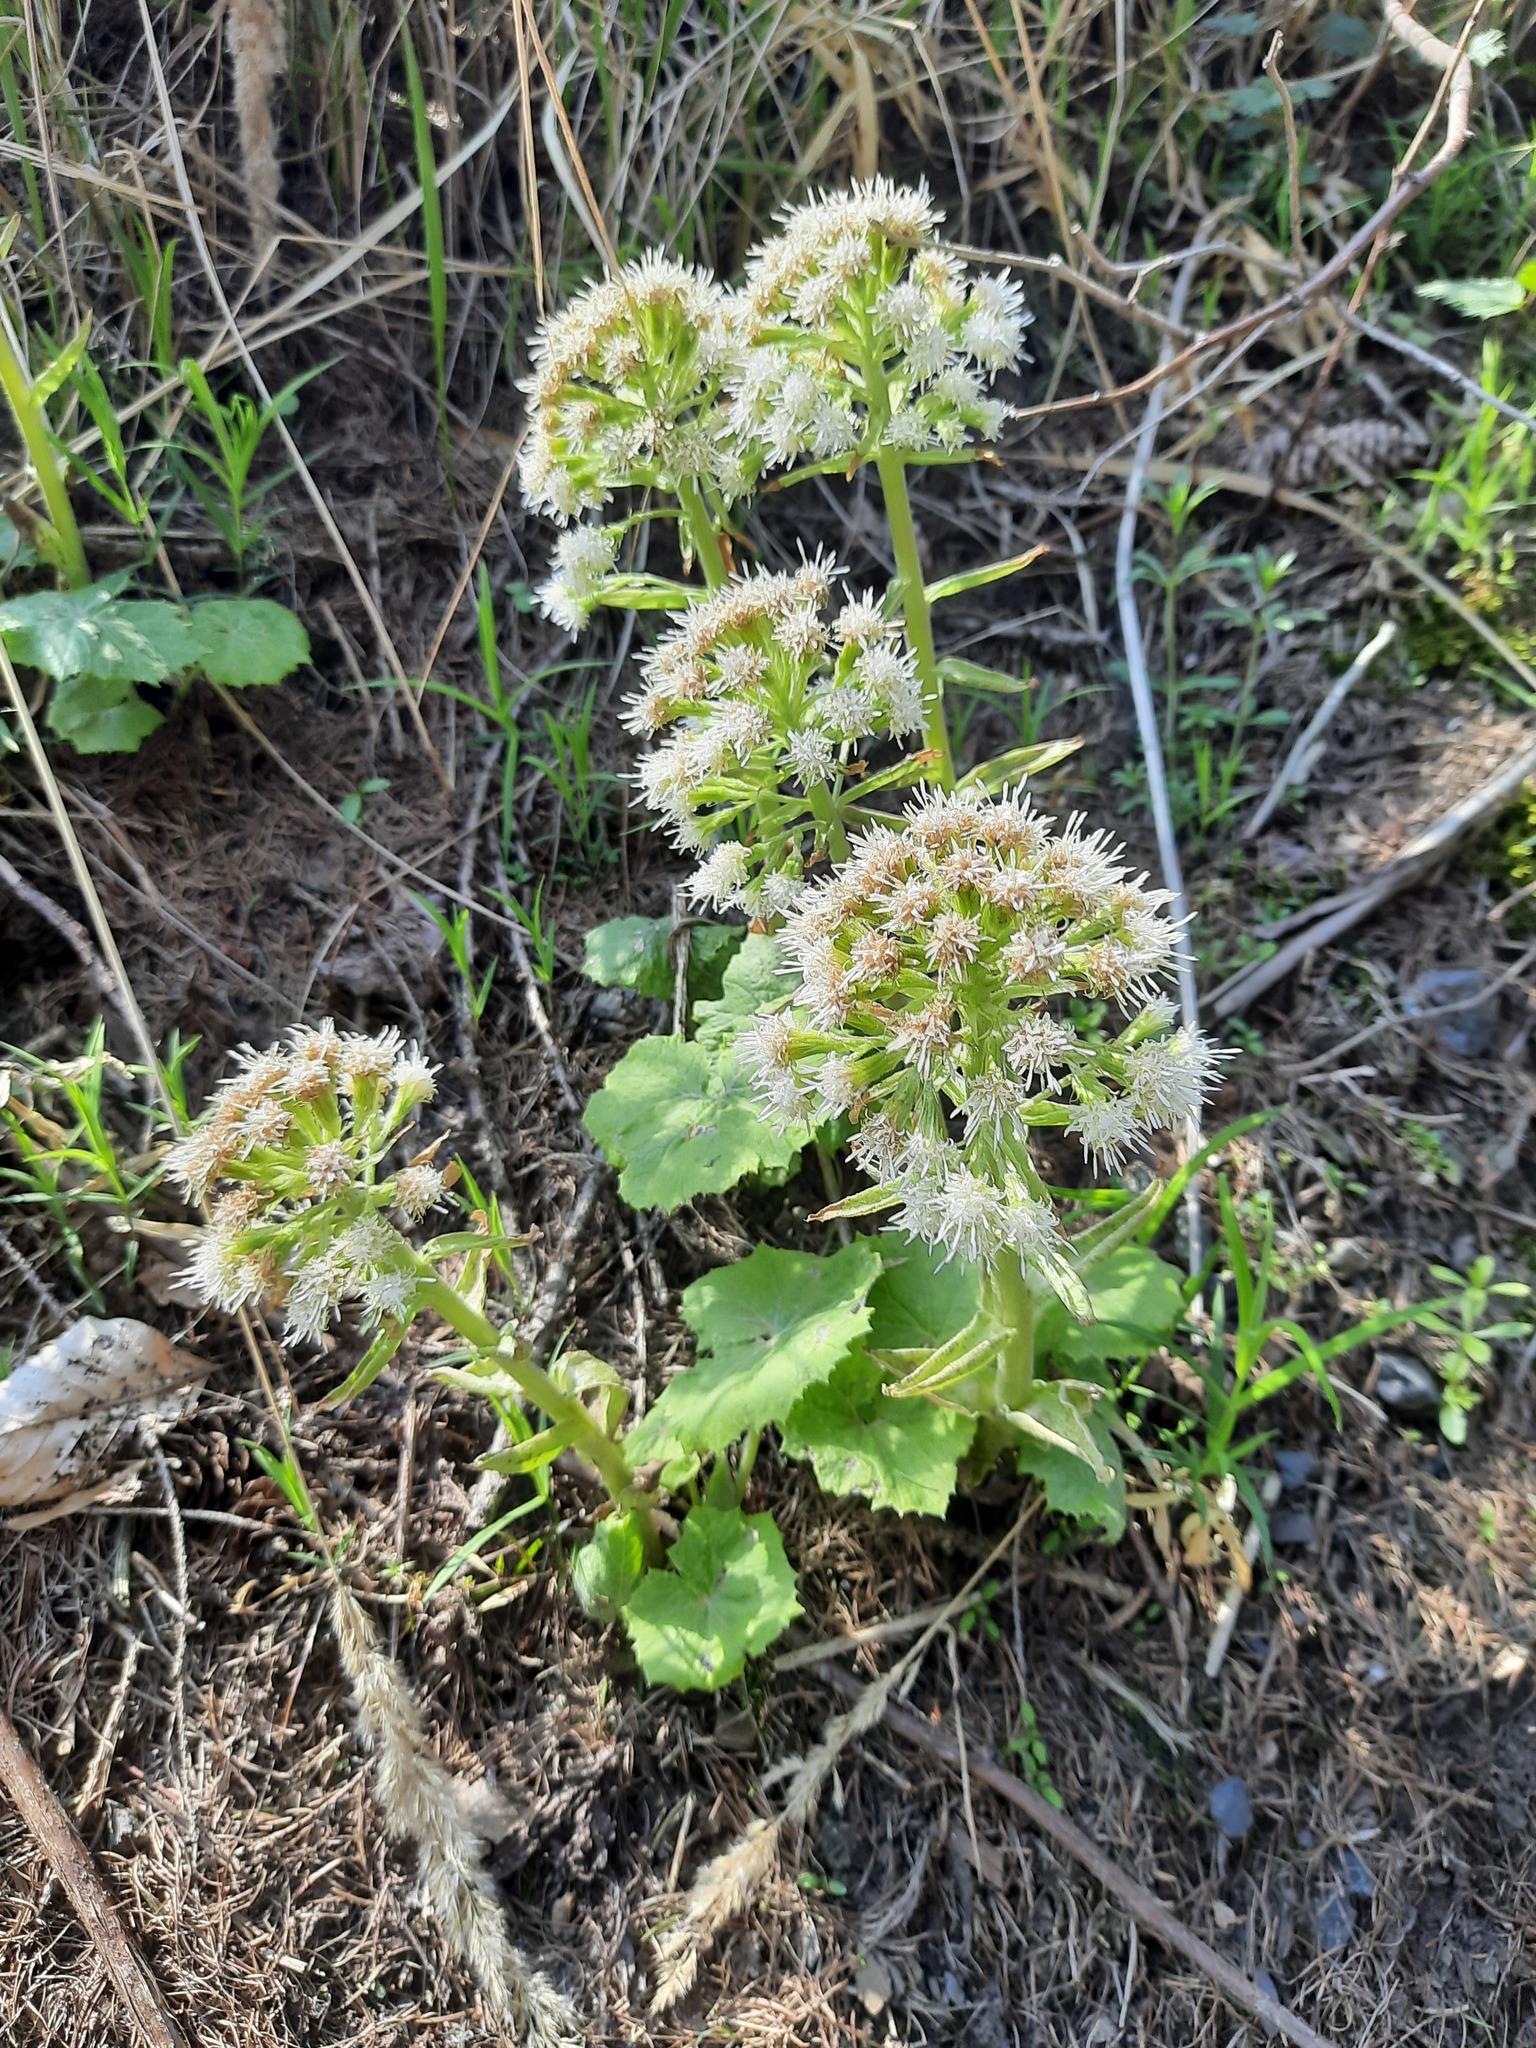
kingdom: Plantae
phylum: Tracheophyta
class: Magnoliopsida
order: Asterales
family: Asteraceae
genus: Petasites
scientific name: Petasites albus
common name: White butterbur
